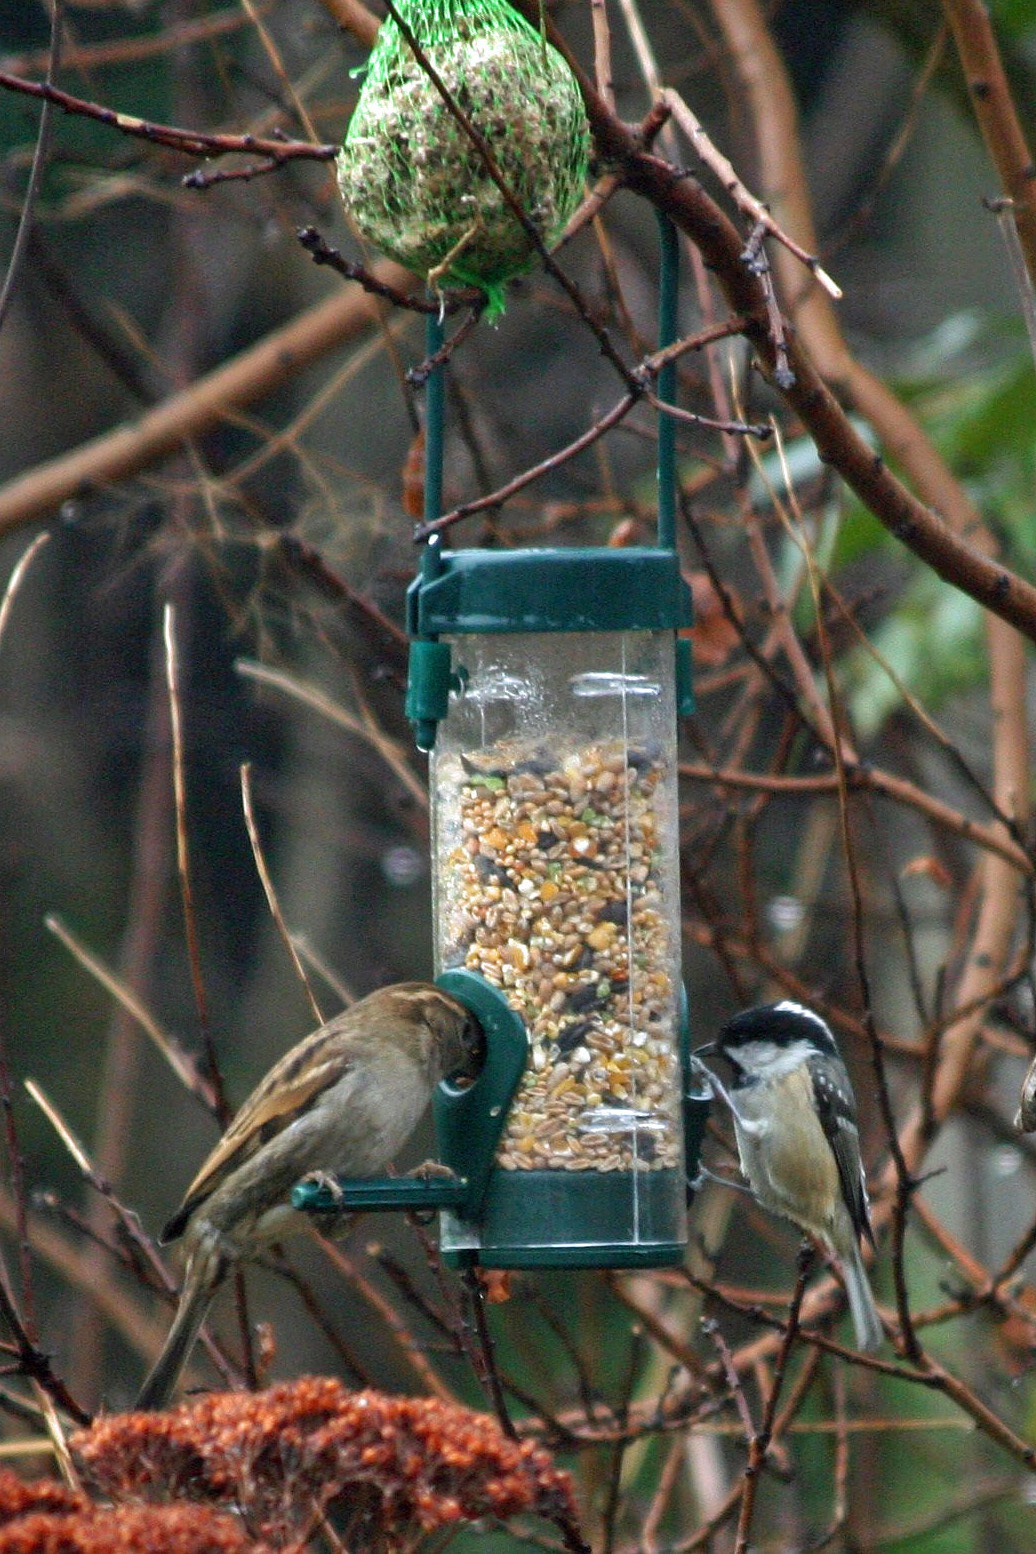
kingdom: Animalia
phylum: Chordata
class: Aves
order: Passeriformes
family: Passeridae
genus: Passer
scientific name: Passer domesticus
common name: House sparrow
